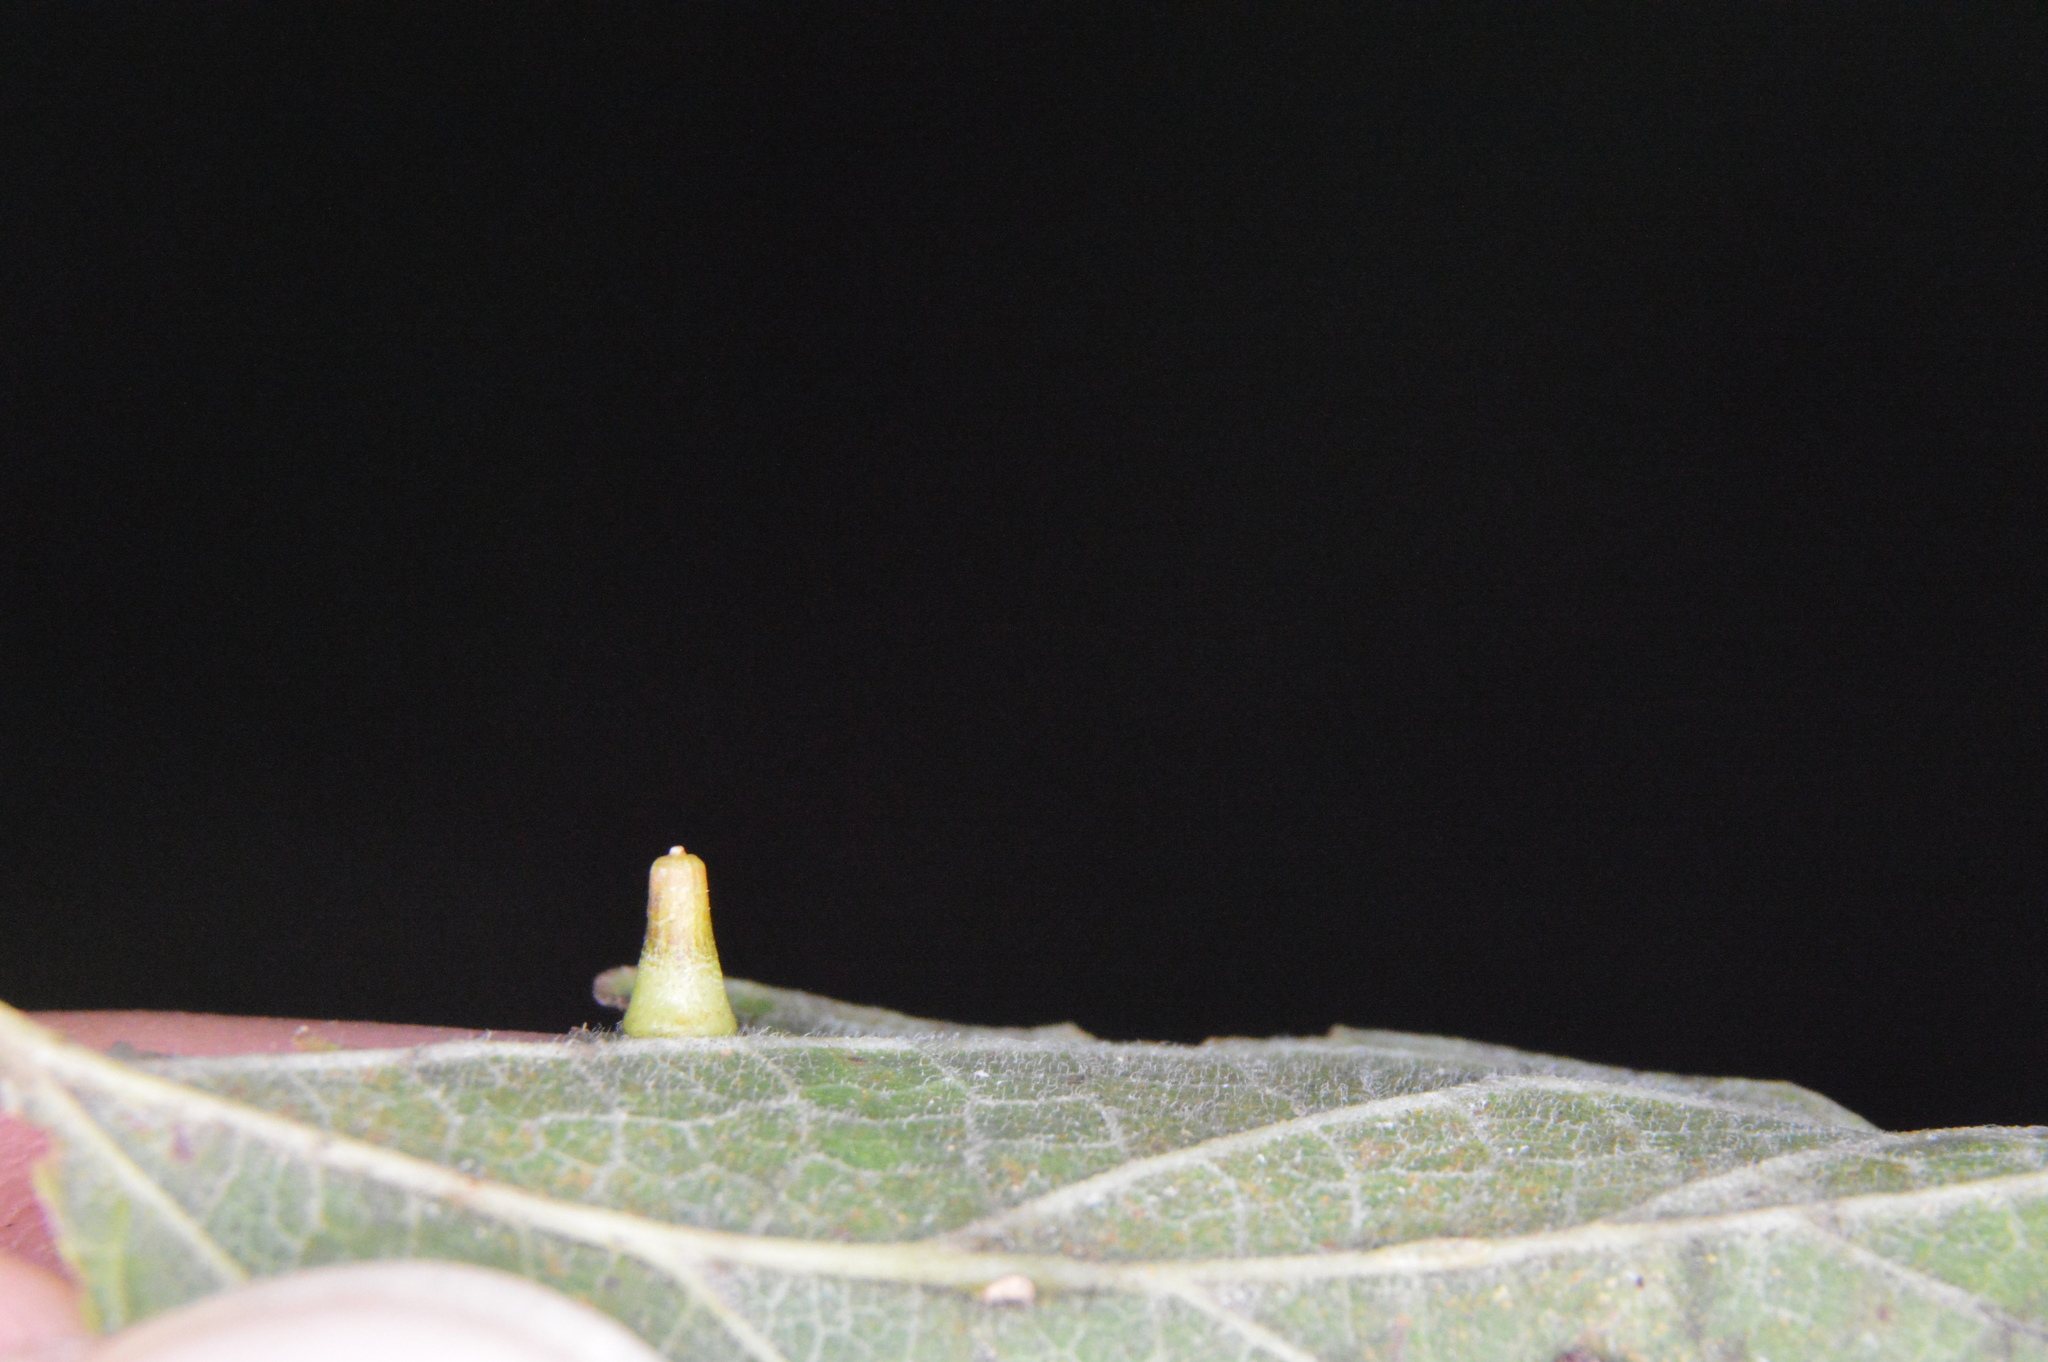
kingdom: Animalia
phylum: Arthropoda
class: Insecta
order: Diptera
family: Cecidomyiidae
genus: Celticecis
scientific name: Celticecis aciculata
